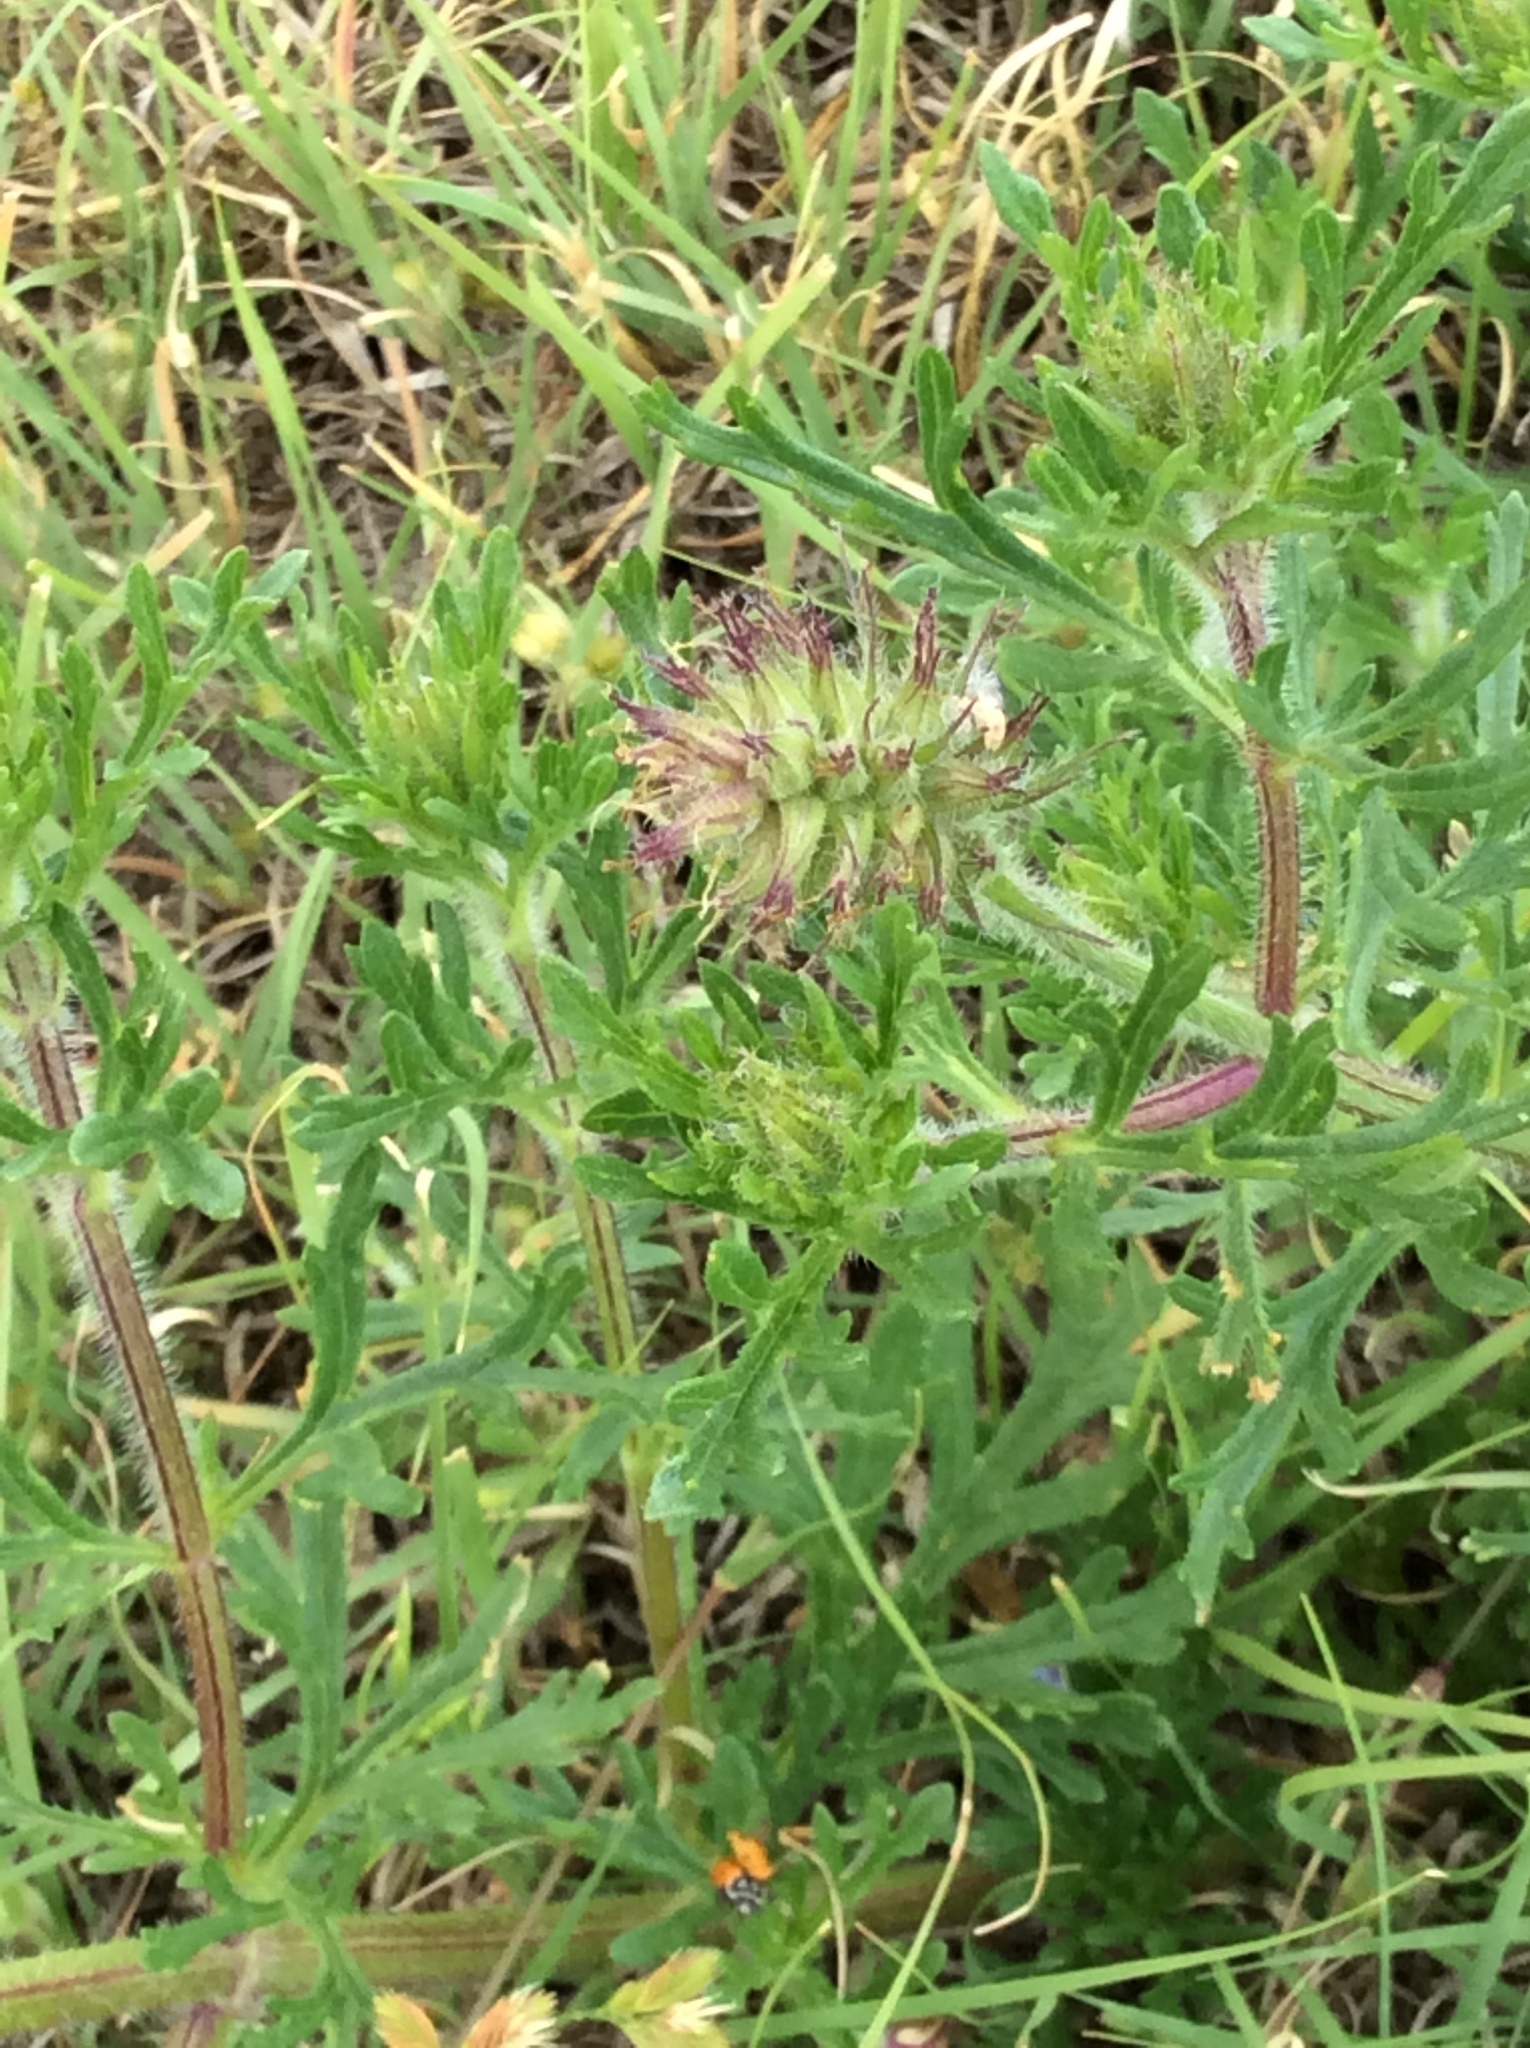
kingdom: Plantae
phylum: Tracheophyta
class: Magnoliopsida
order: Lamiales
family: Verbenaceae
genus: Verbena
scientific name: Verbena bipinnatifida
